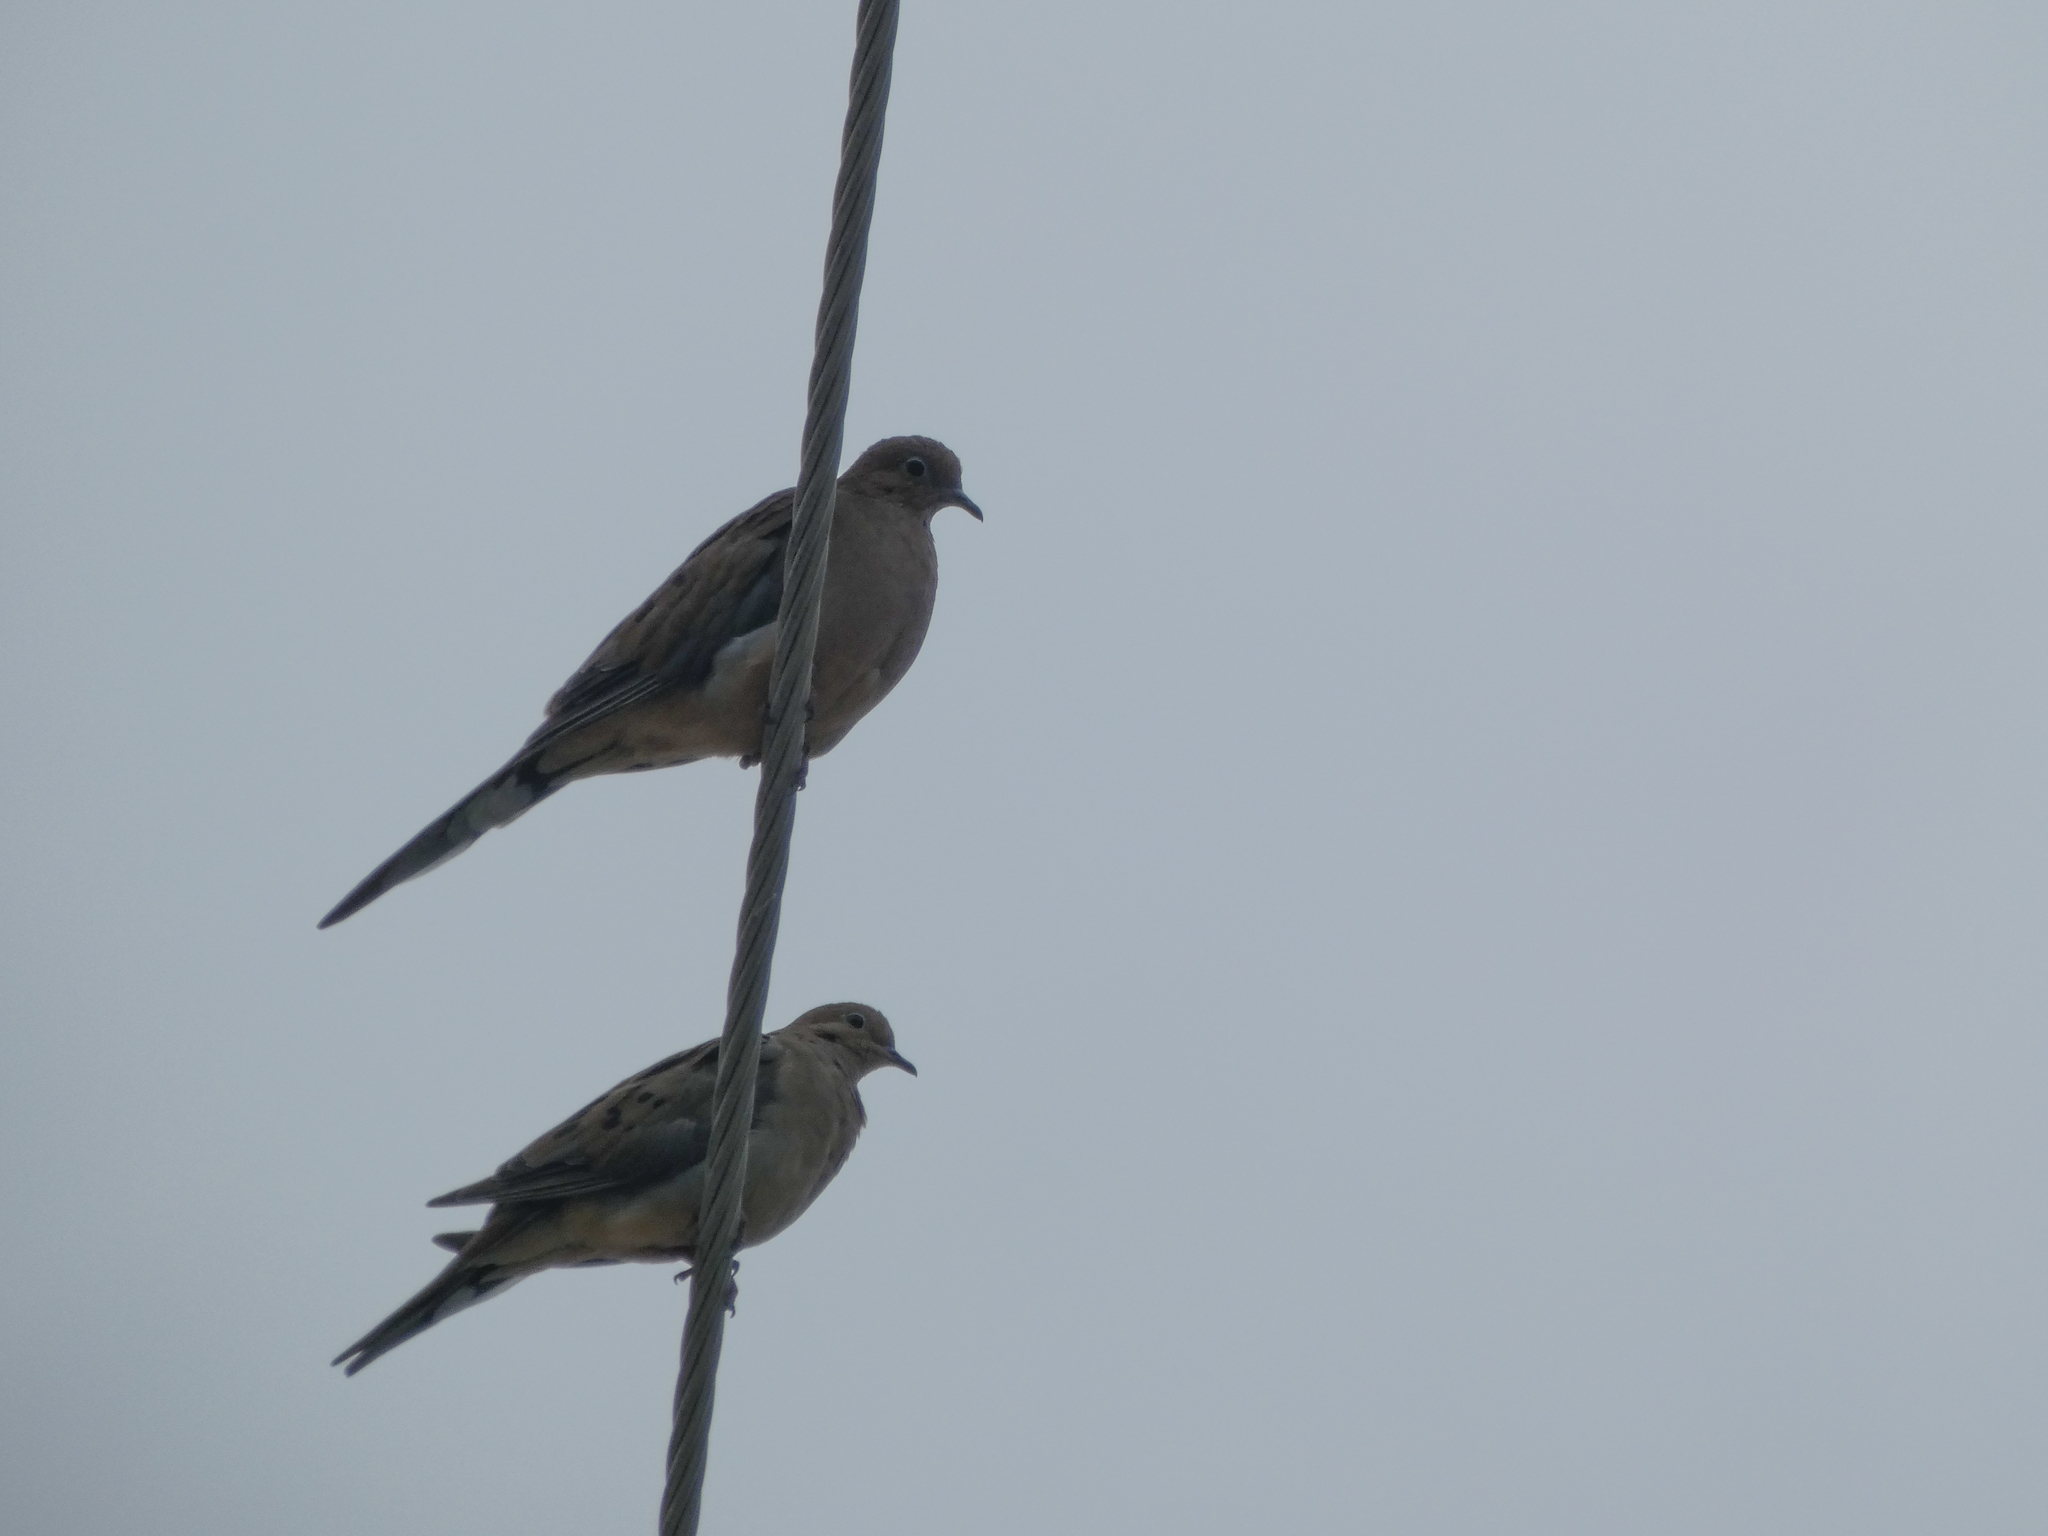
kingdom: Animalia
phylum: Chordata
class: Aves
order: Columbiformes
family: Columbidae
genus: Zenaida
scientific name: Zenaida macroura
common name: Mourning dove
